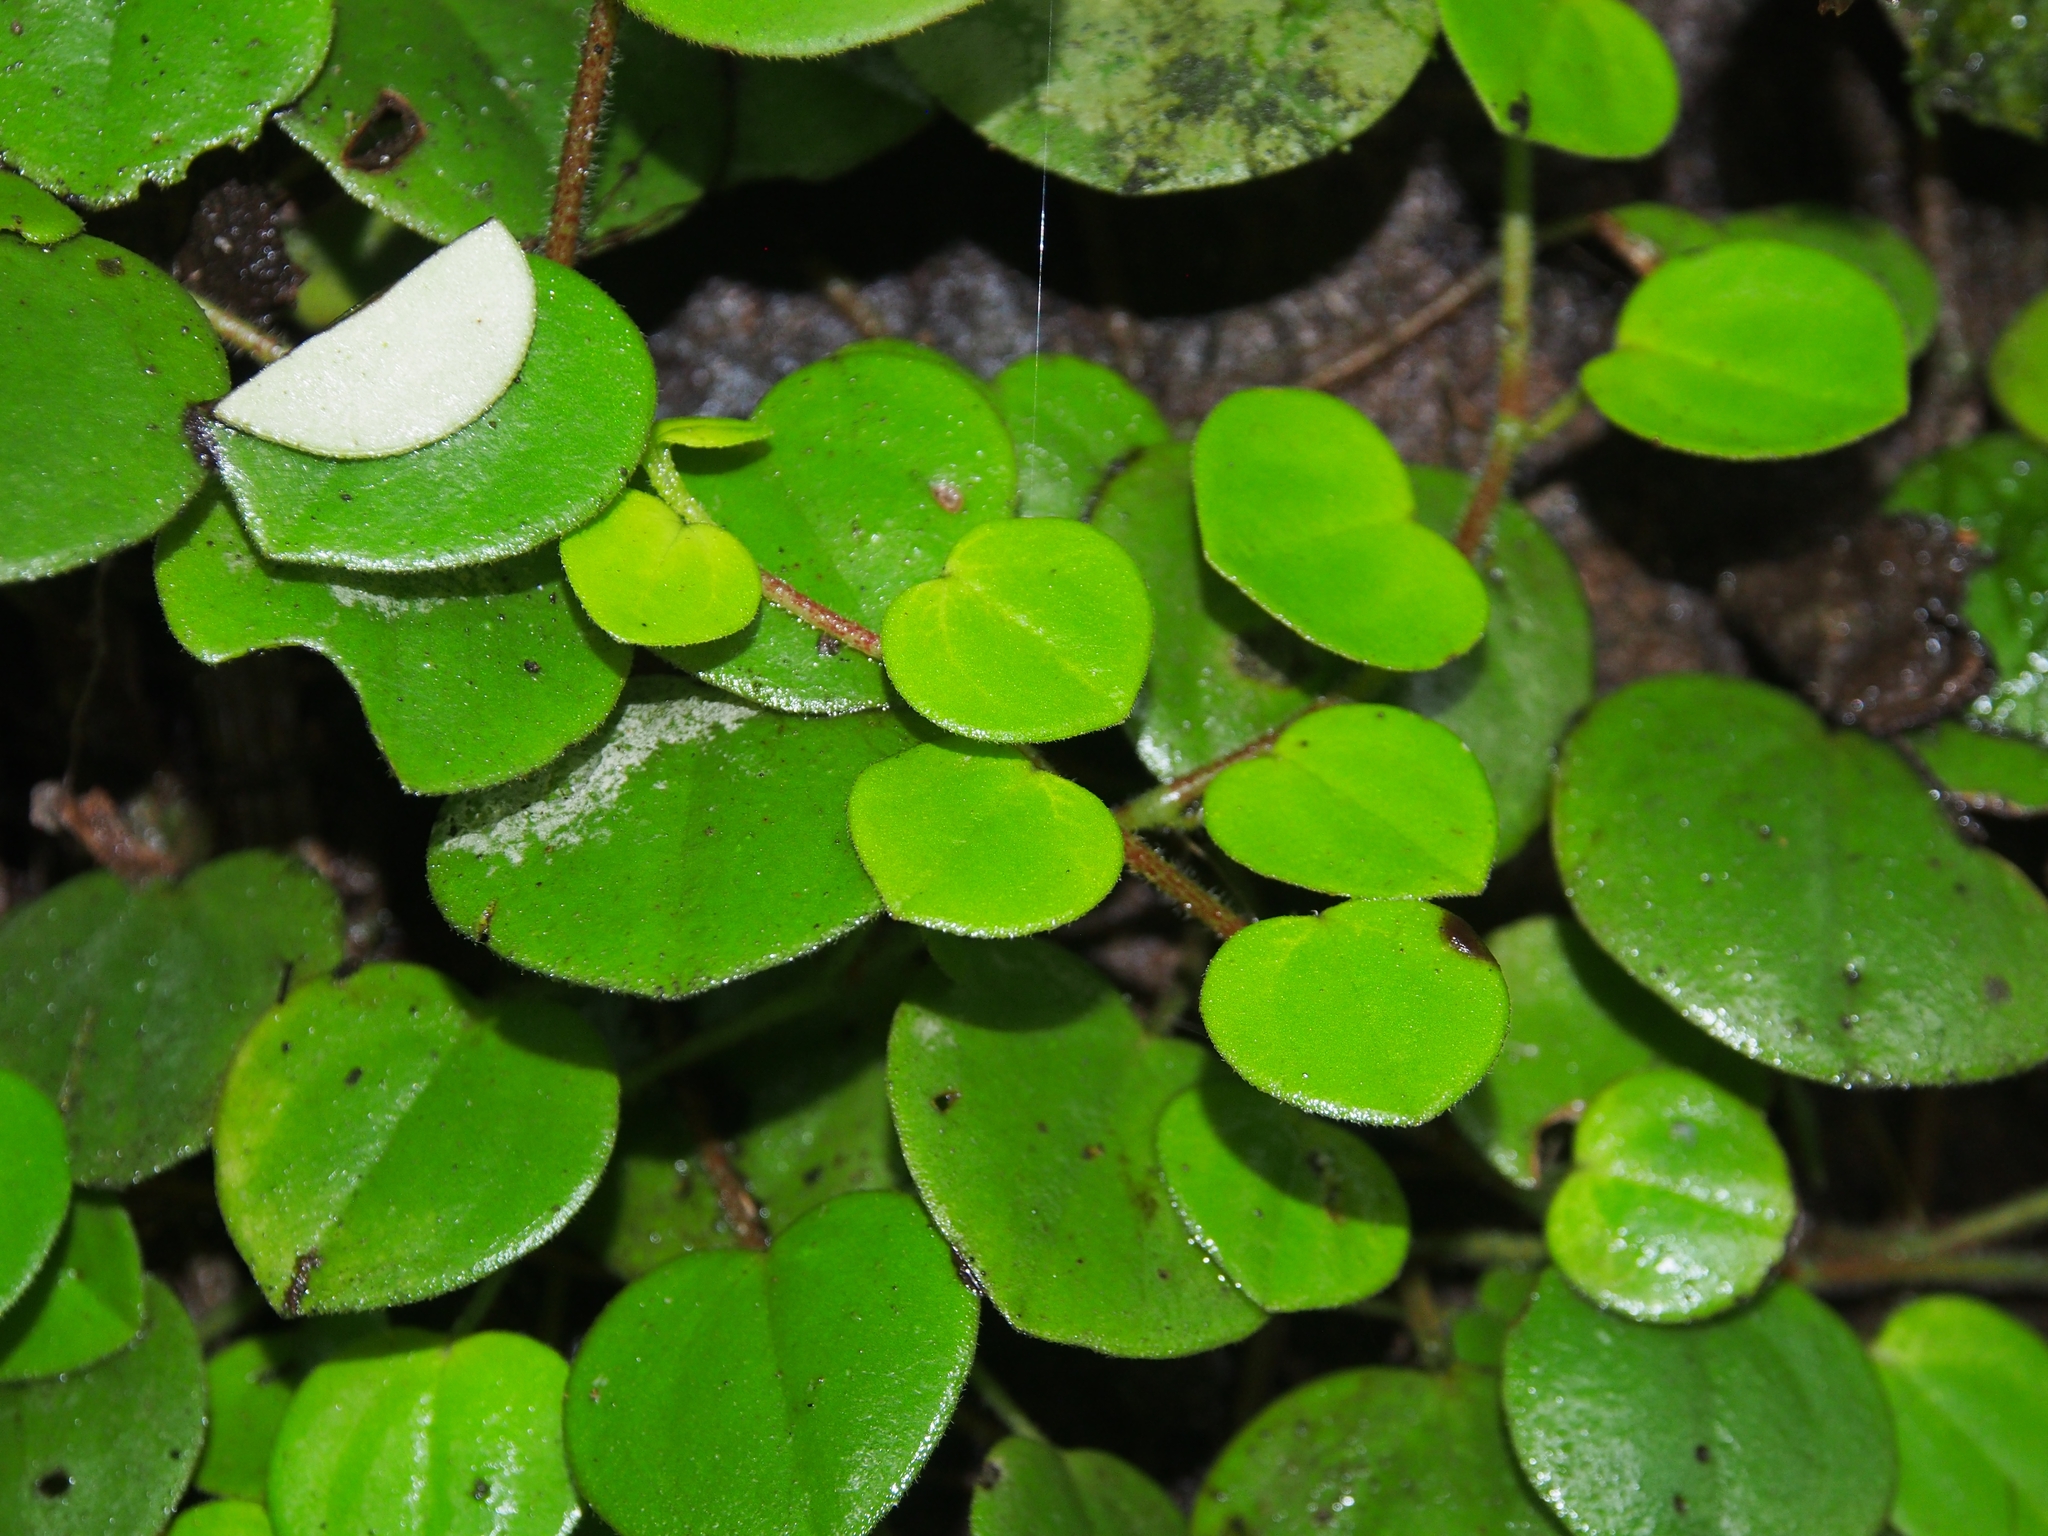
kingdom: Plantae
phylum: Tracheophyta
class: Magnoliopsida
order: Piperales
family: Piperaceae
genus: Peperomia
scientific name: Peperomia pseudocasarettoi
